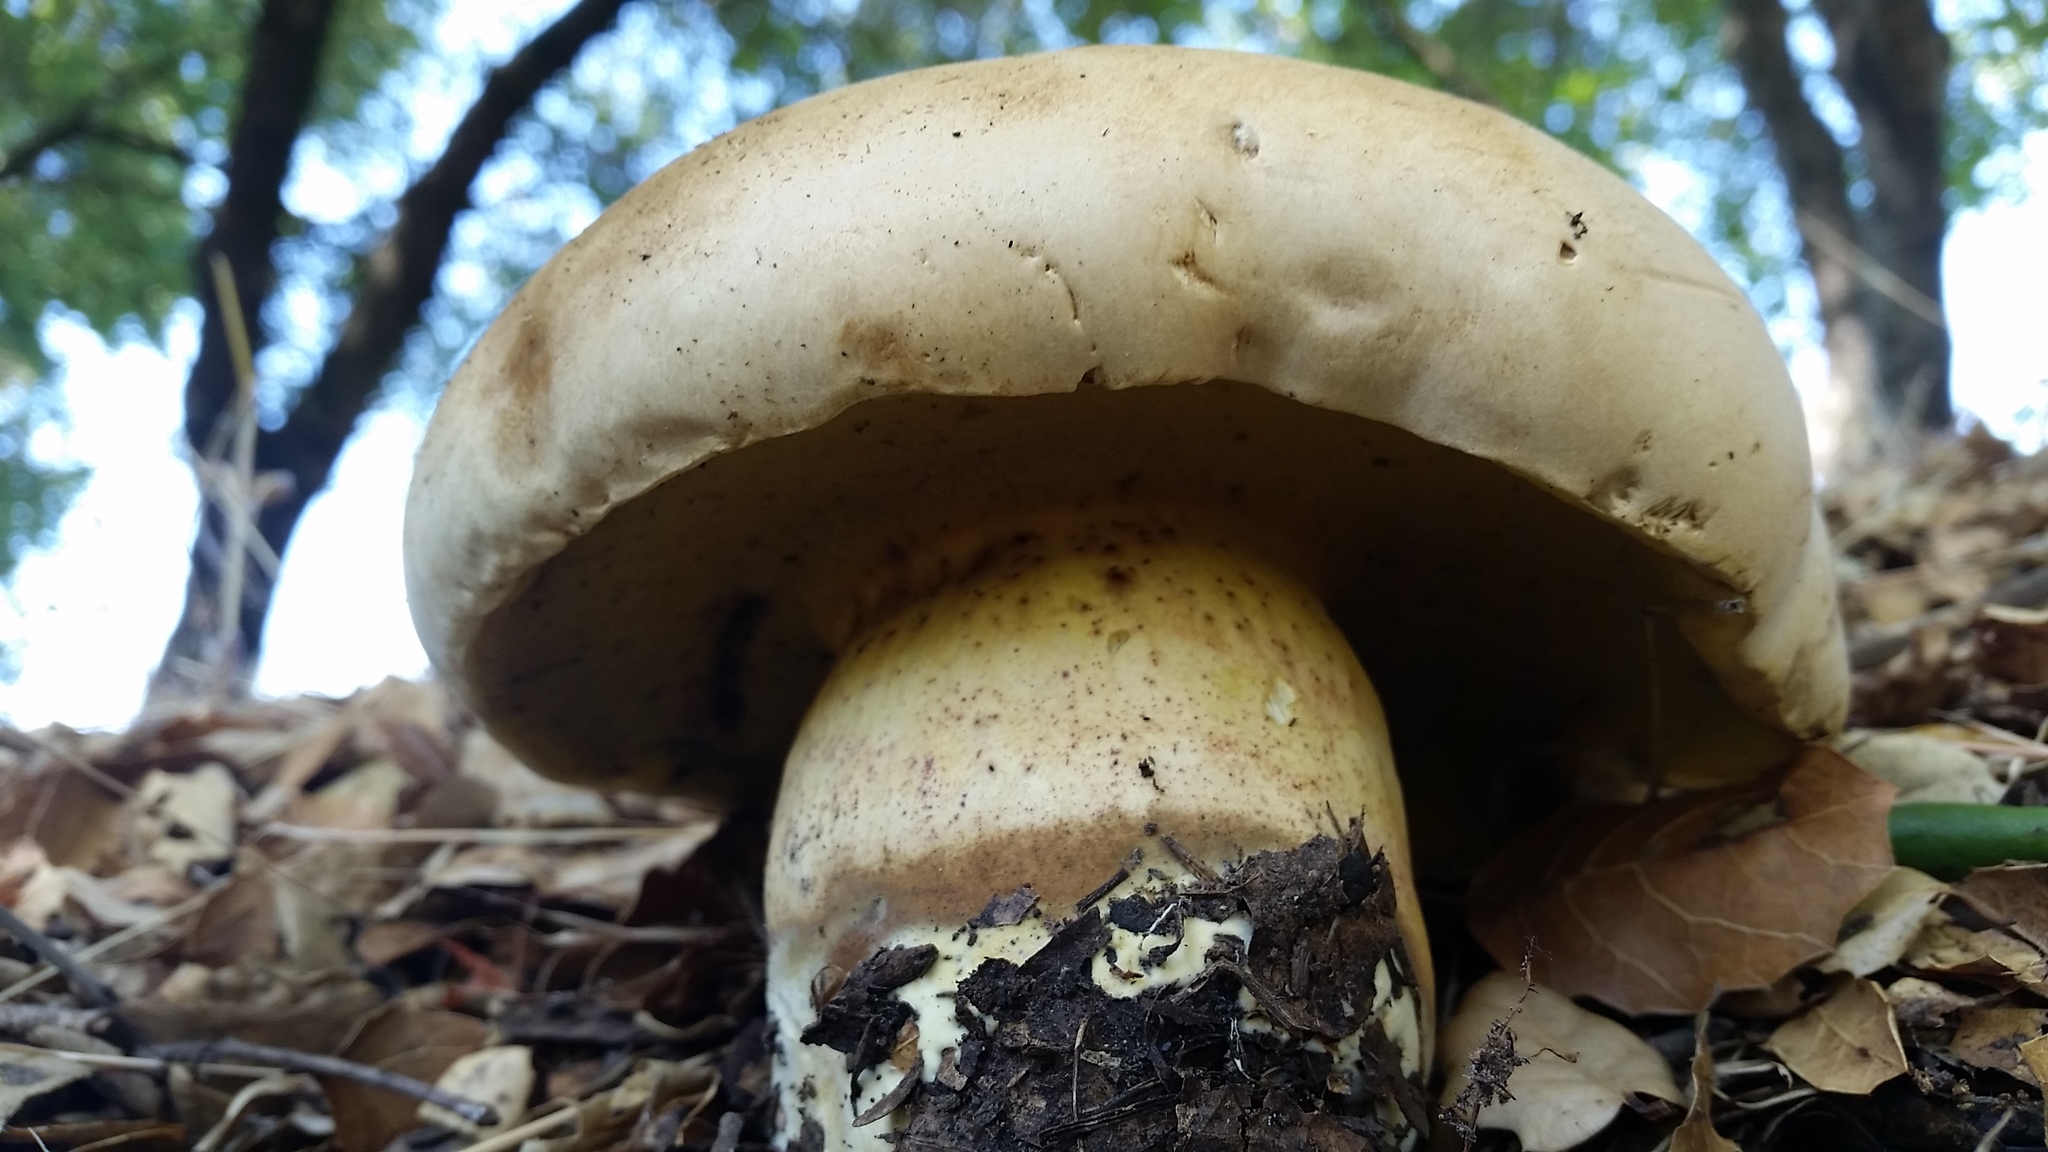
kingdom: Fungi
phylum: Basidiomycota
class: Agaricomycetes
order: Boletales
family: Boletaceae
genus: Caloboletus
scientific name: Caloboletus marshii
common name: Ben's bitter bolete
